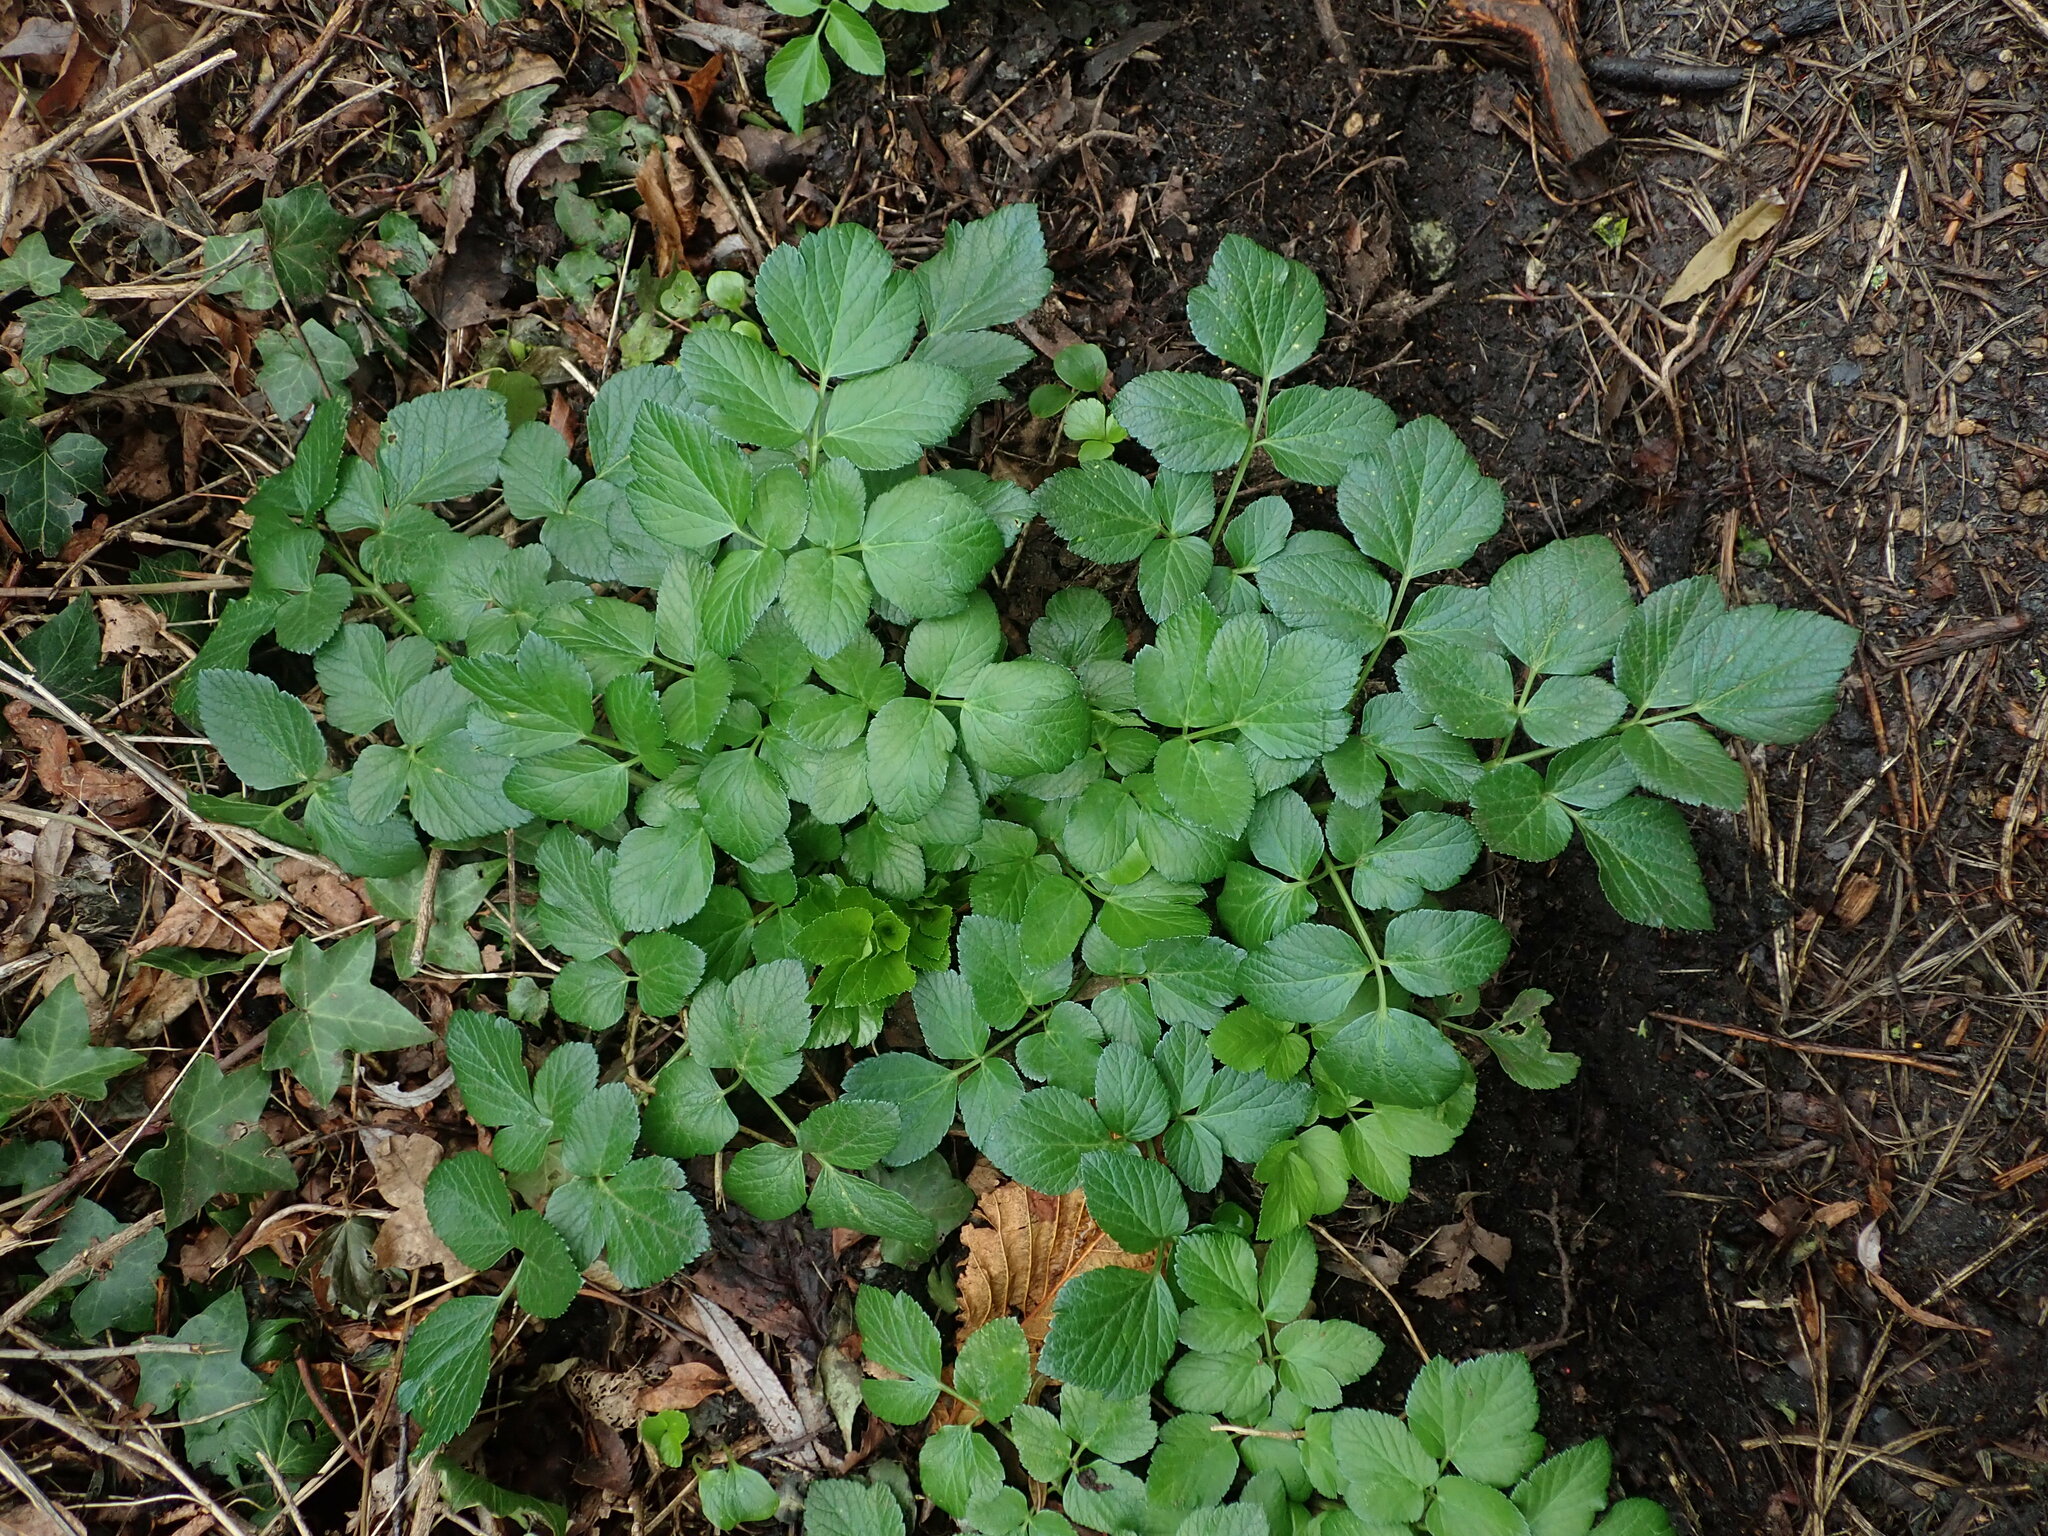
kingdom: Plantae
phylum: Tracheophyta
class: Magnoliopsida
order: Apiales
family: Apiaceae
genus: Smyrnium
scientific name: Smyrnium olusatrum
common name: Alexanders
